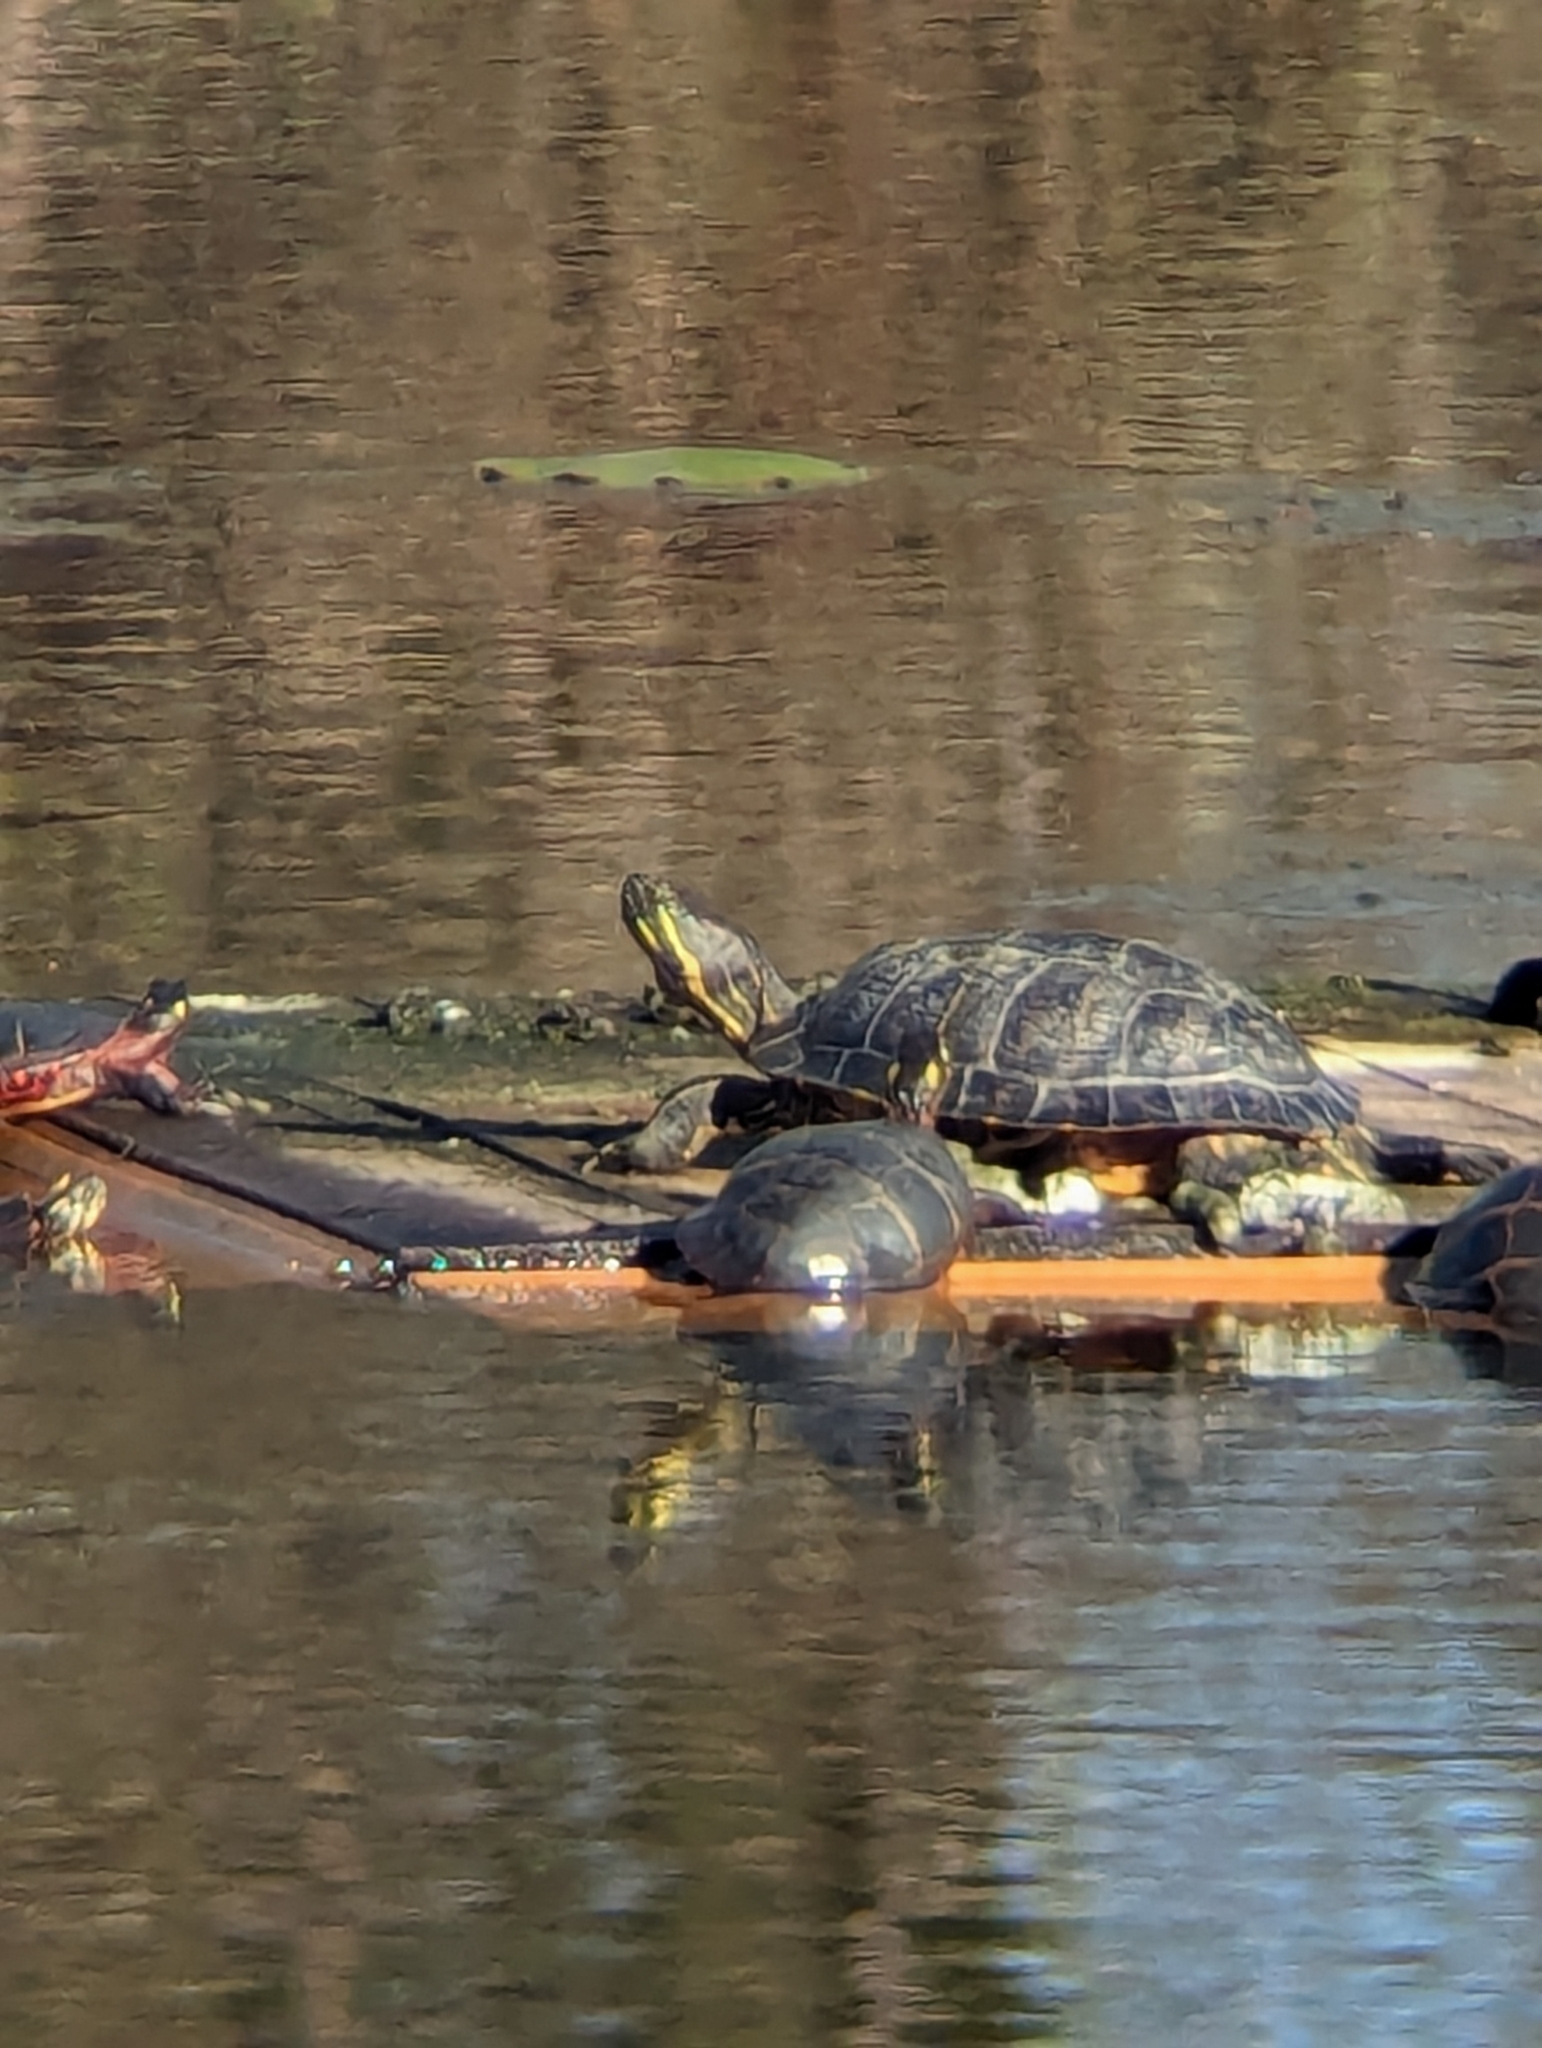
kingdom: Animalia
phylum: Chordata
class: Testudines
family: Emydidae
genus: Pseudemys
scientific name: Pseudemys concinna
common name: Eastern river cooter
